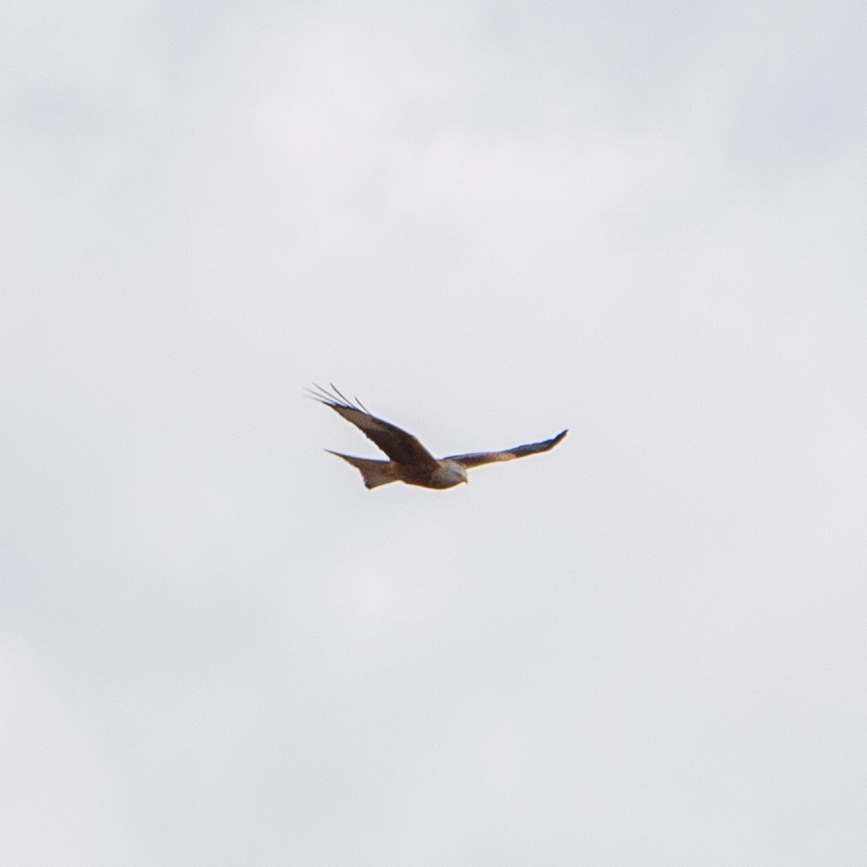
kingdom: Animalia
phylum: Chordata
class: Aves
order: Accipitriformes
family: Accipitridae
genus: Milvus
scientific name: Milvus milvus
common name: Red kite
